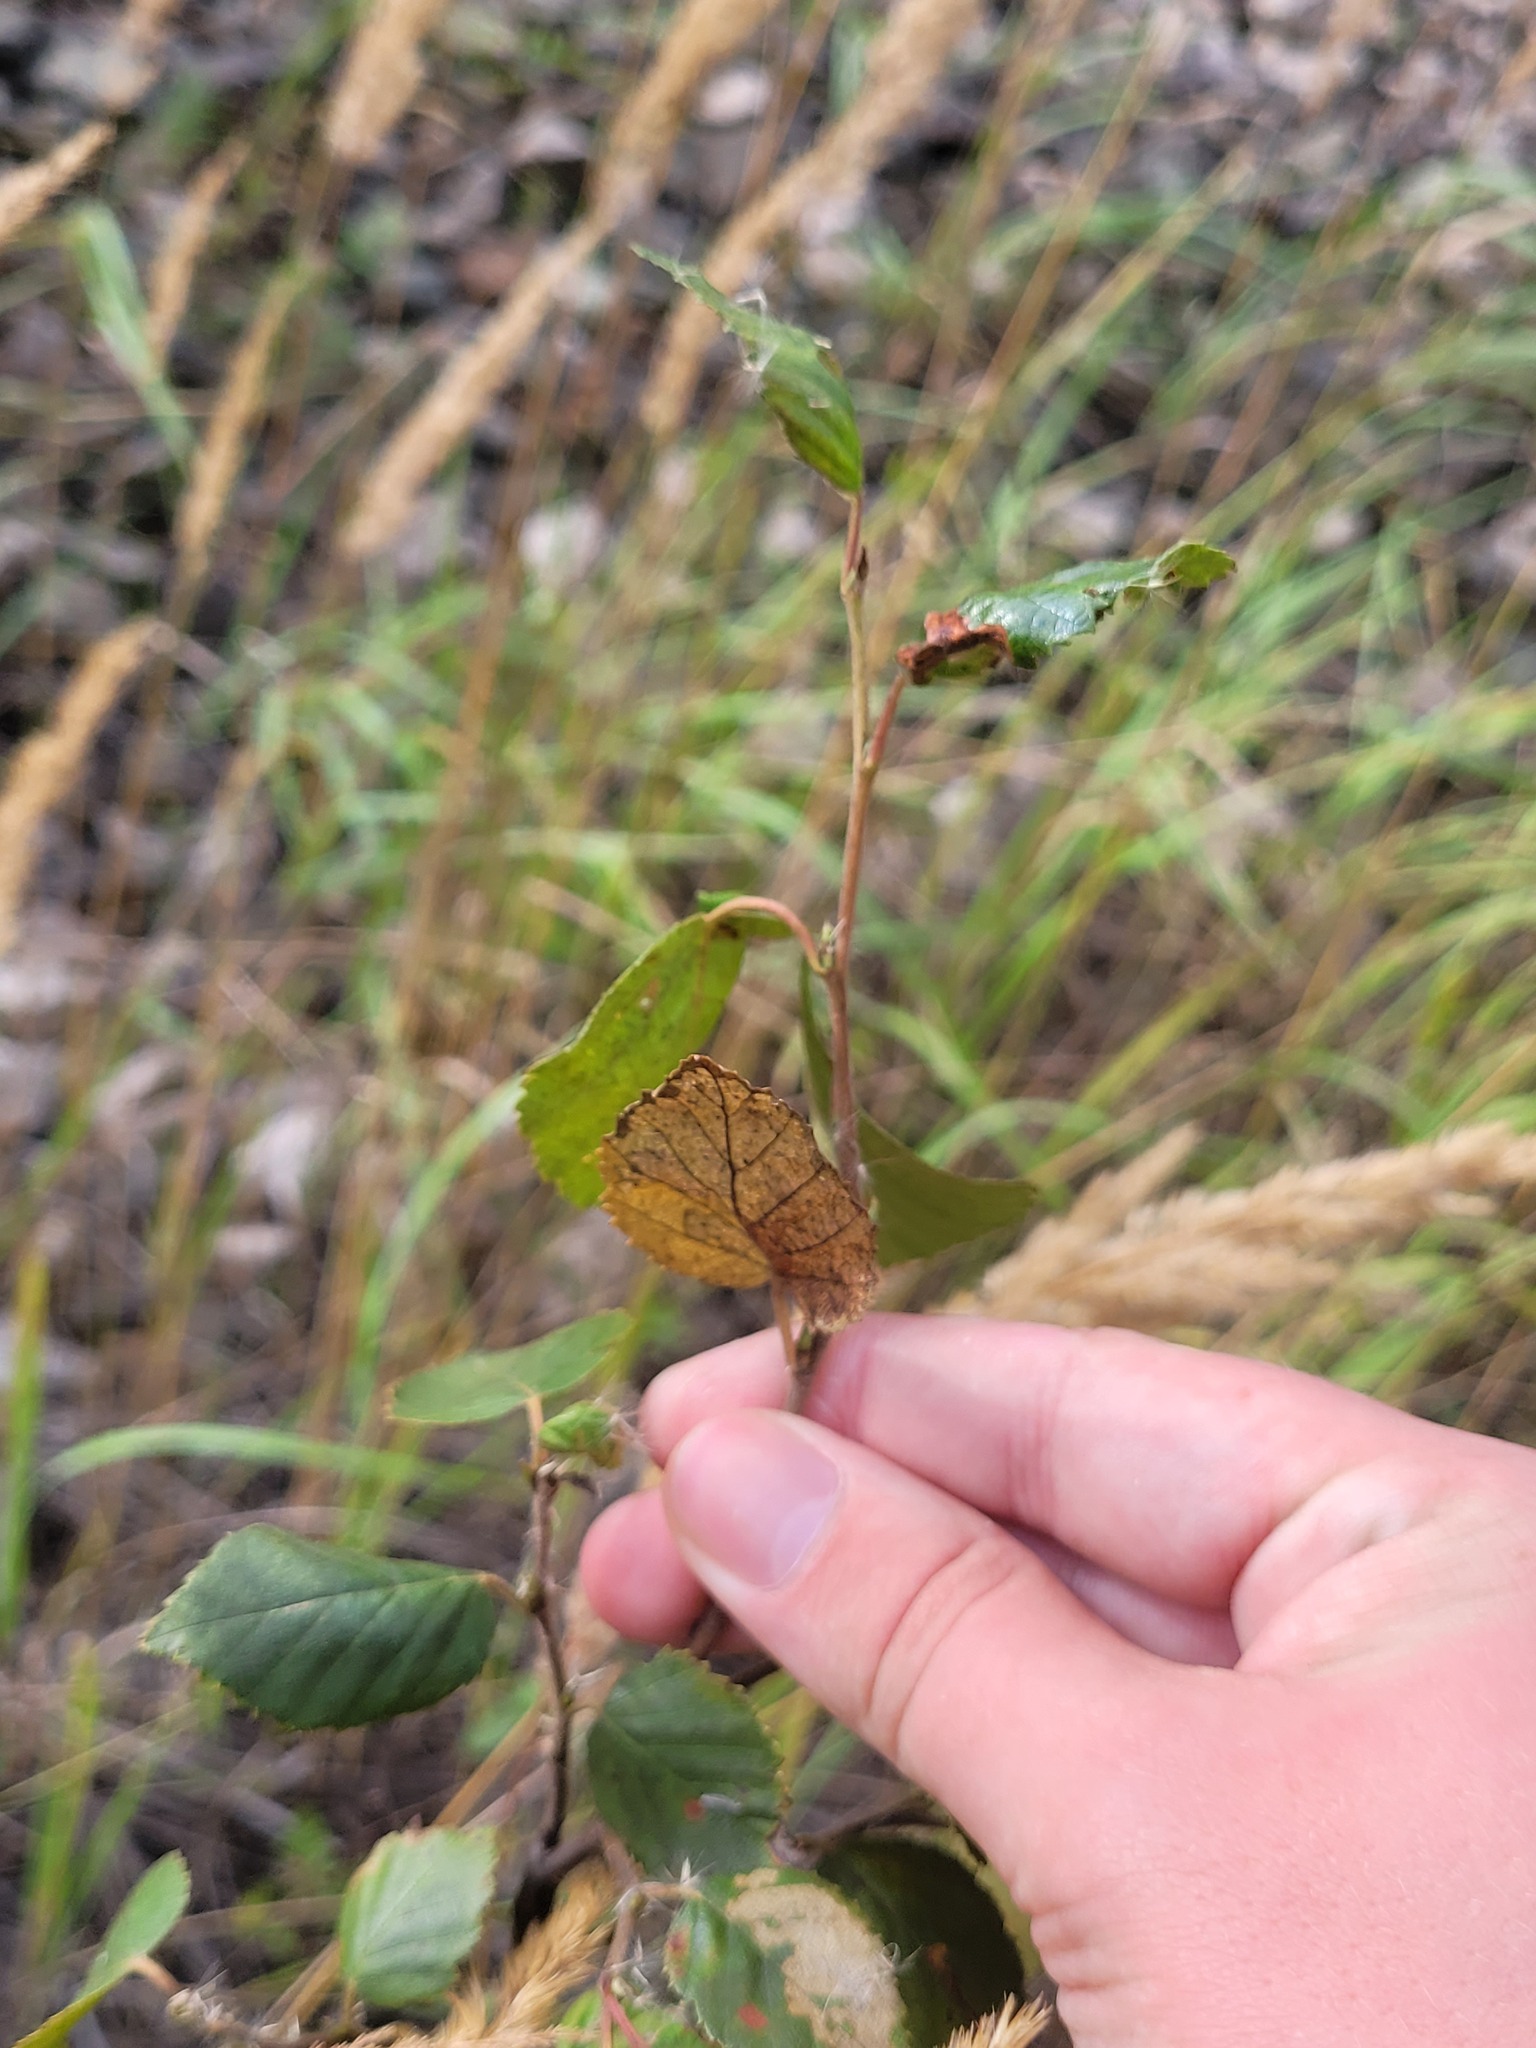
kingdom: Plantae
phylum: Tracheophyta
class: Magnoliopsida
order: Fagales
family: Betulaceae
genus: Betula
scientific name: Betula pubescens
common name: Downy birch
